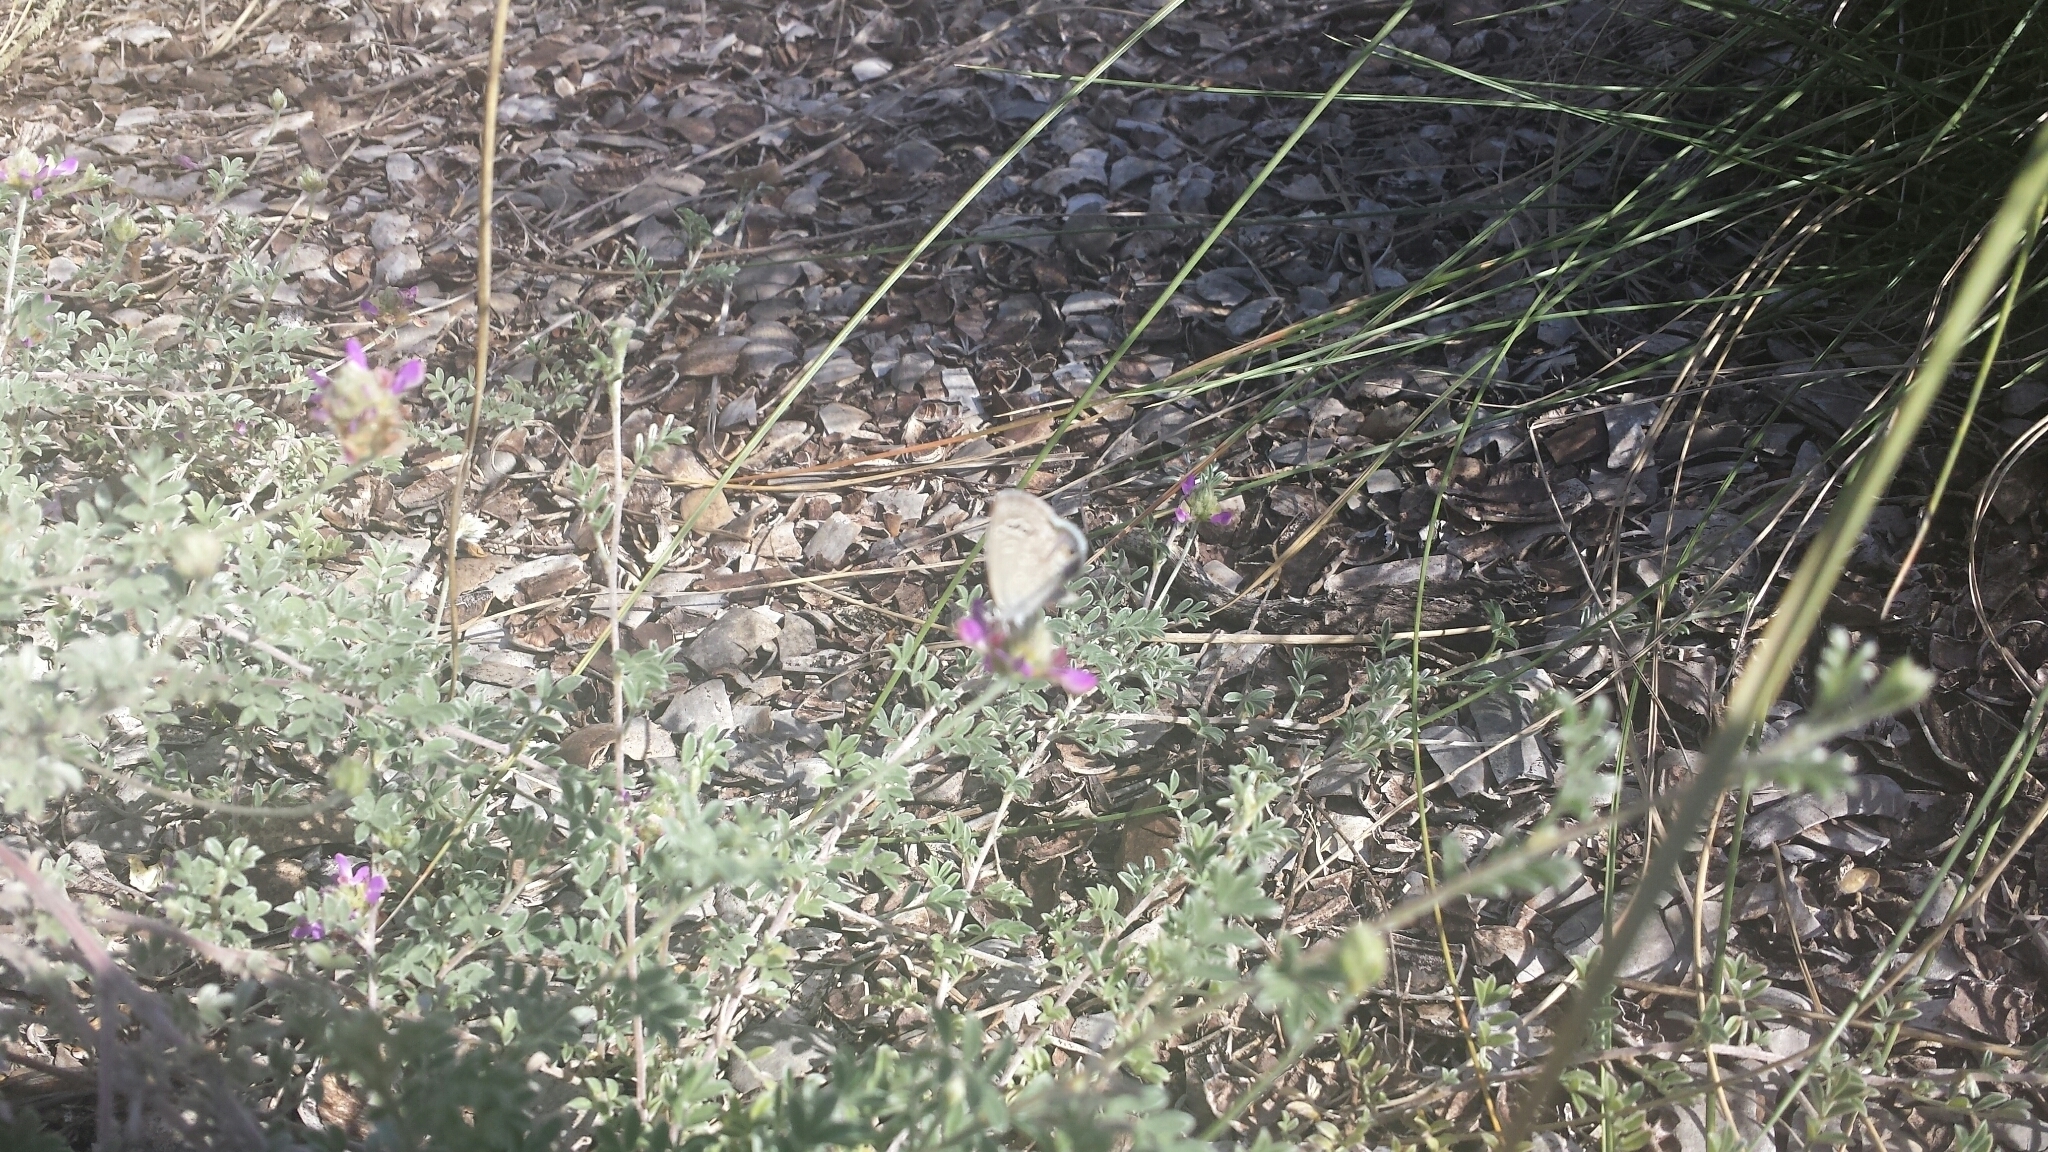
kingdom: Animalia
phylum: Arthropoda
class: Insecta
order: Lepidoptera
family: Lycaenidae
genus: Echinargus
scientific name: Echinargus isola
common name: Reakirt's blue
